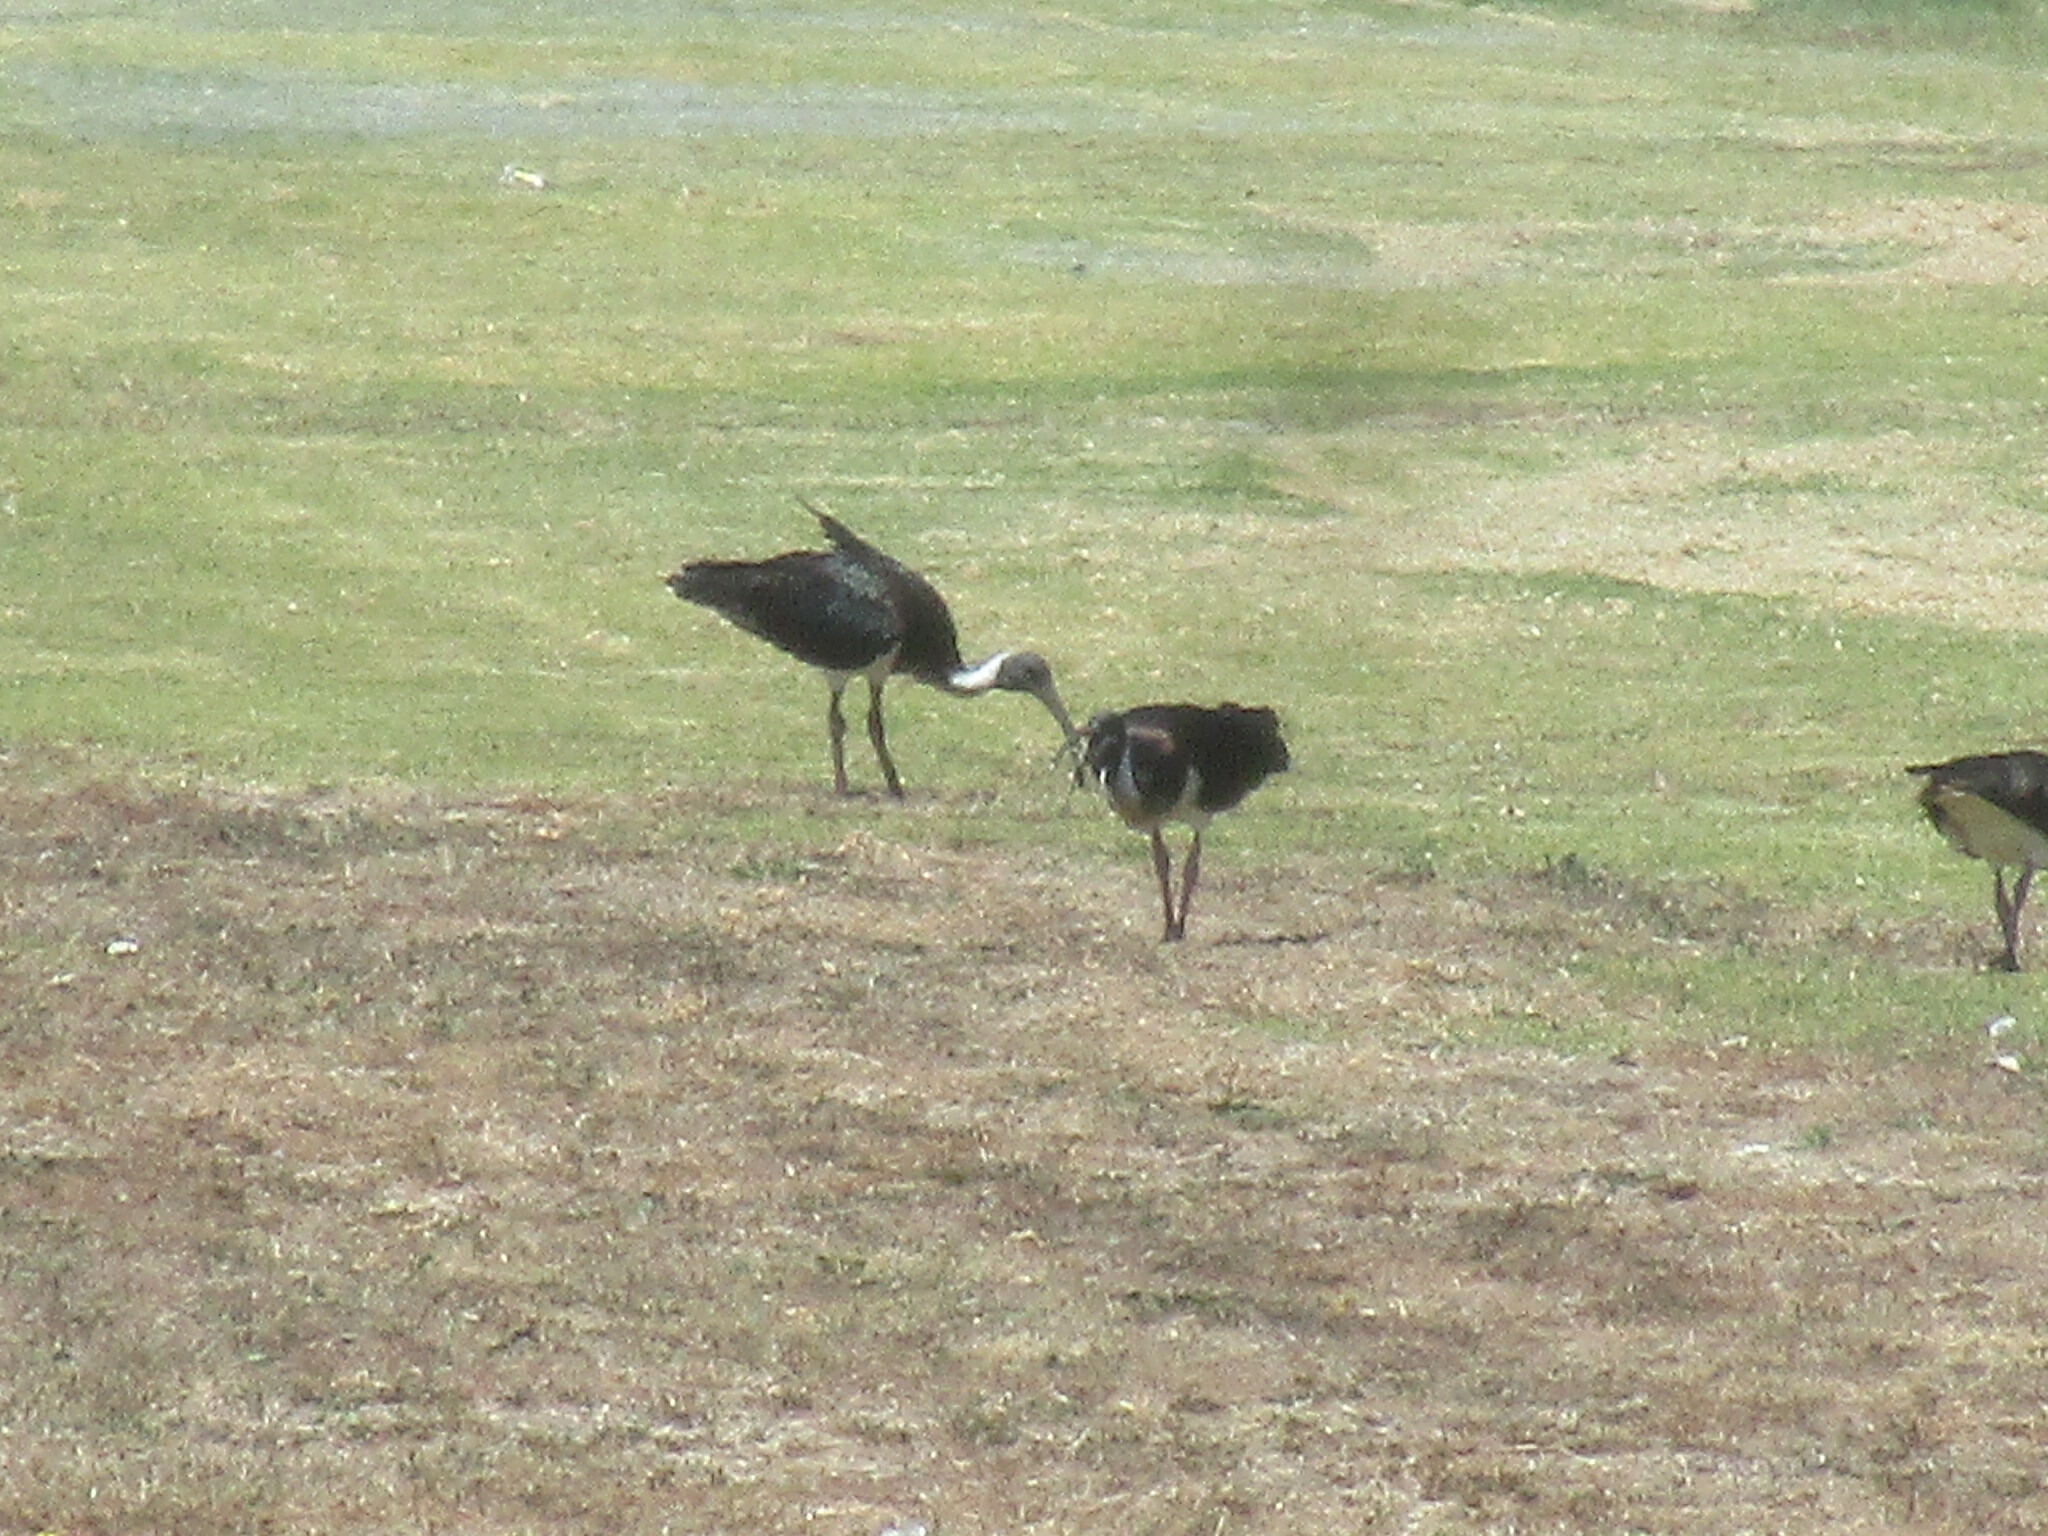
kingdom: Animalia
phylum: Chordata
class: Aves
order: Pelecaniformes
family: Threskiornithidae
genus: Threskiornis
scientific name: Threskiornis spinicollis
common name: Straw-necked ibis
